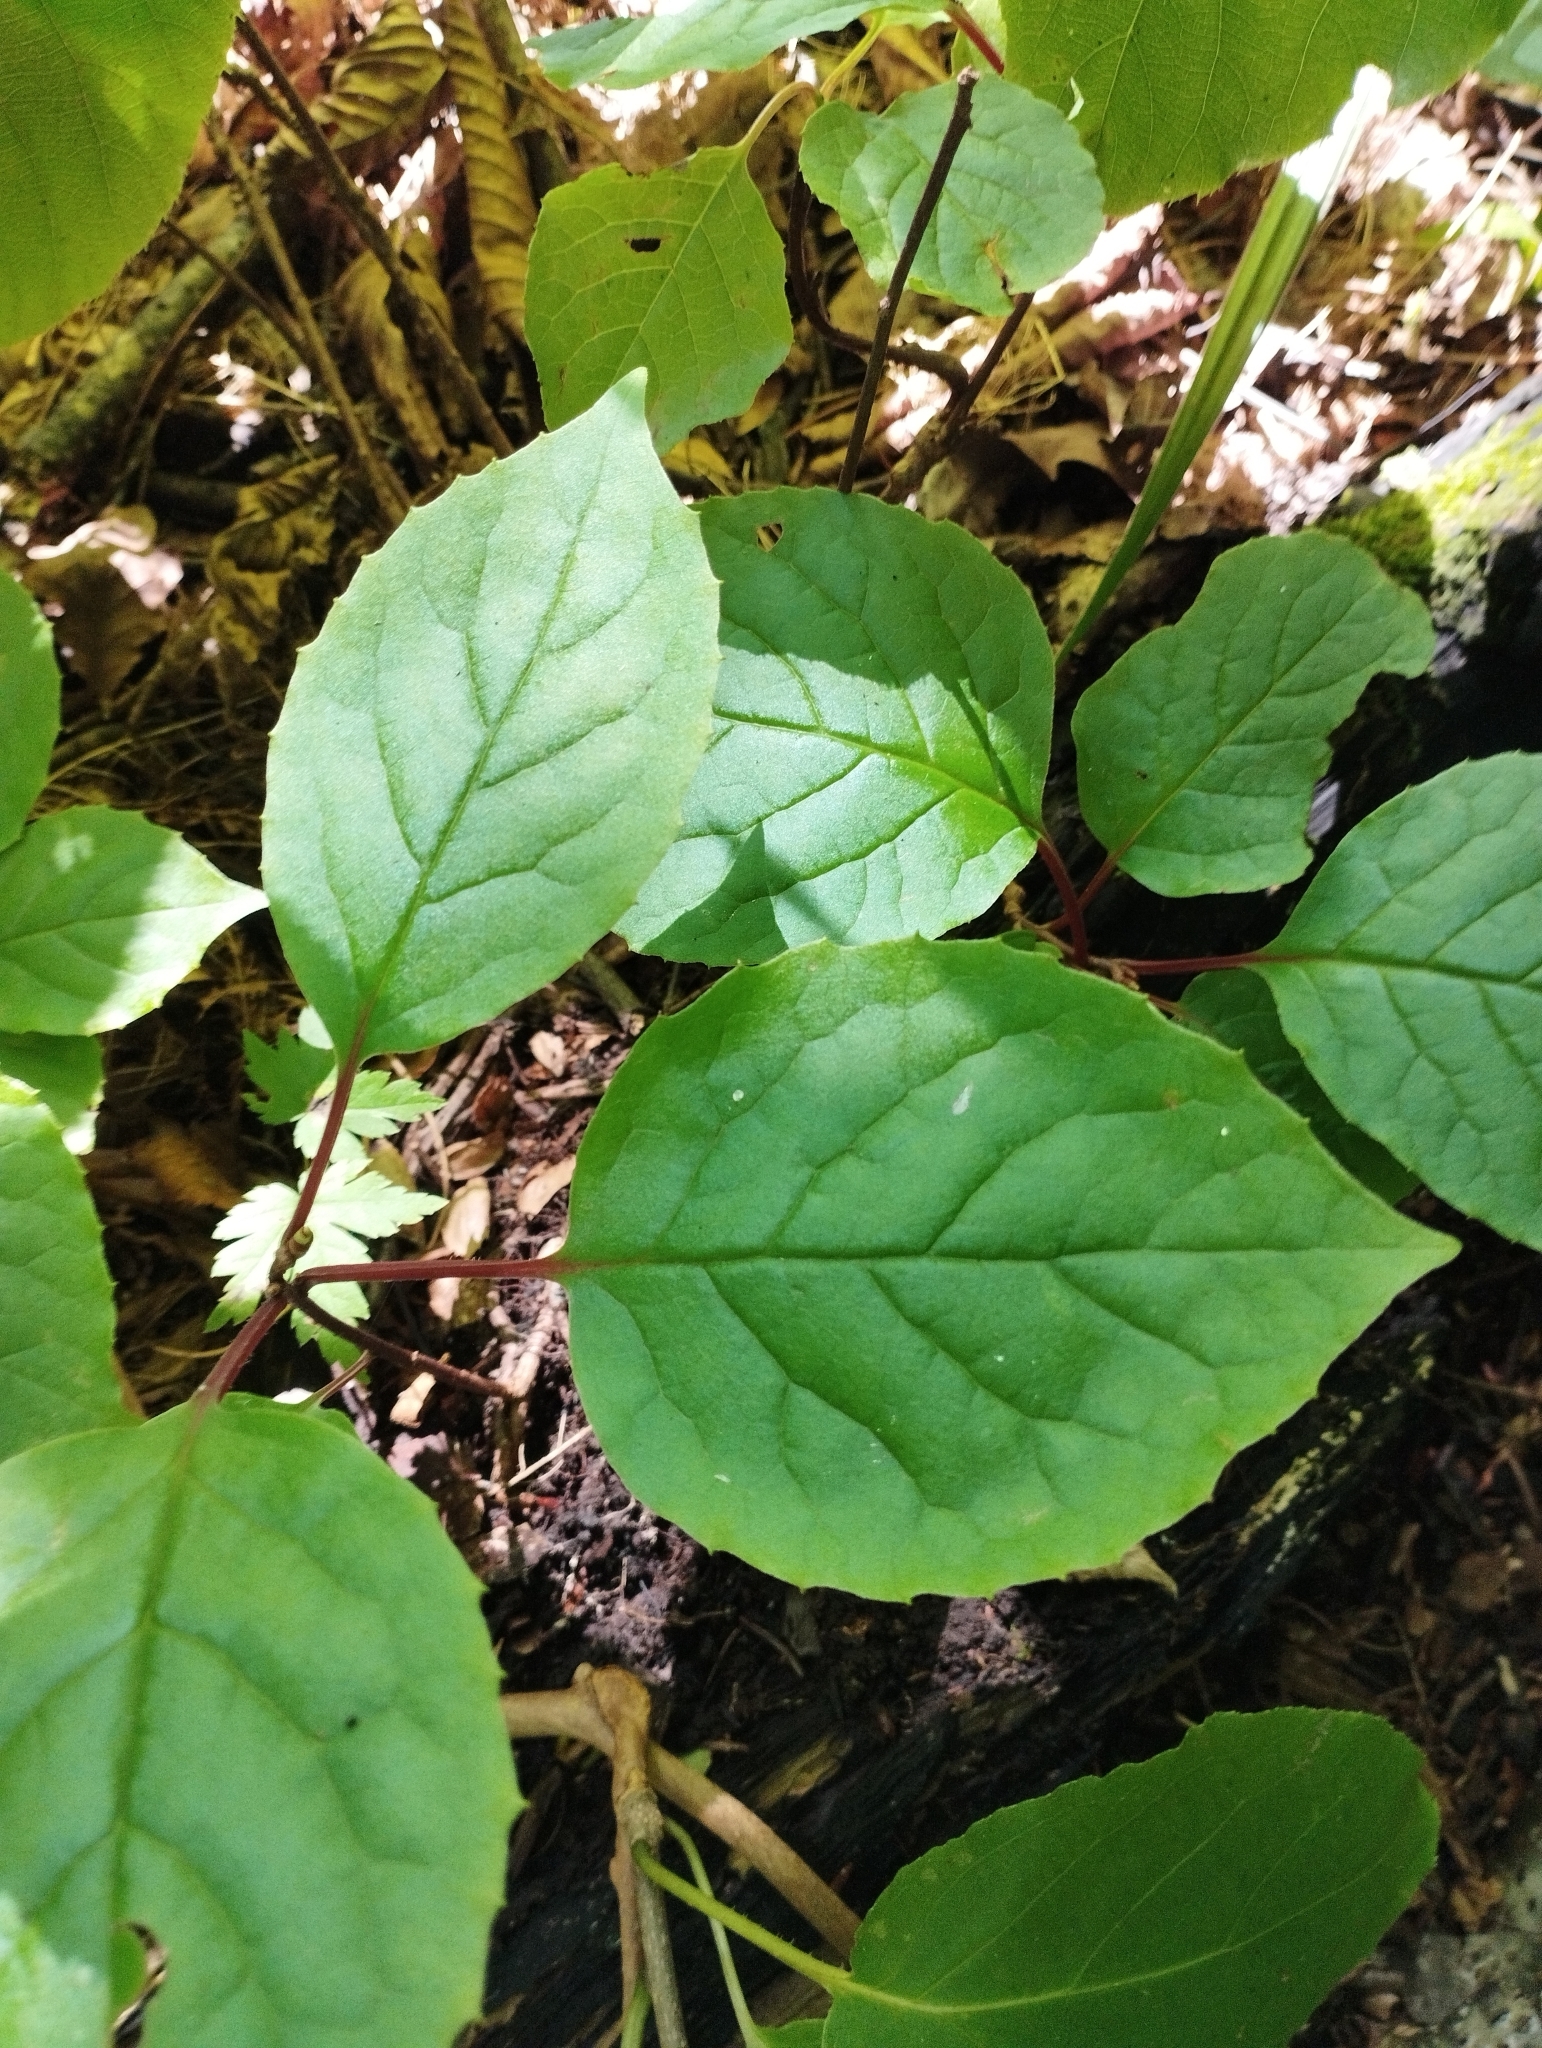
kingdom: Plantae
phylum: Tracheophyta
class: Magnoliopsida
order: Austrobaileyales
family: Schisandraceae
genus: Schisandra
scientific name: Schisandra chinensis
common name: Magnolia-vine
